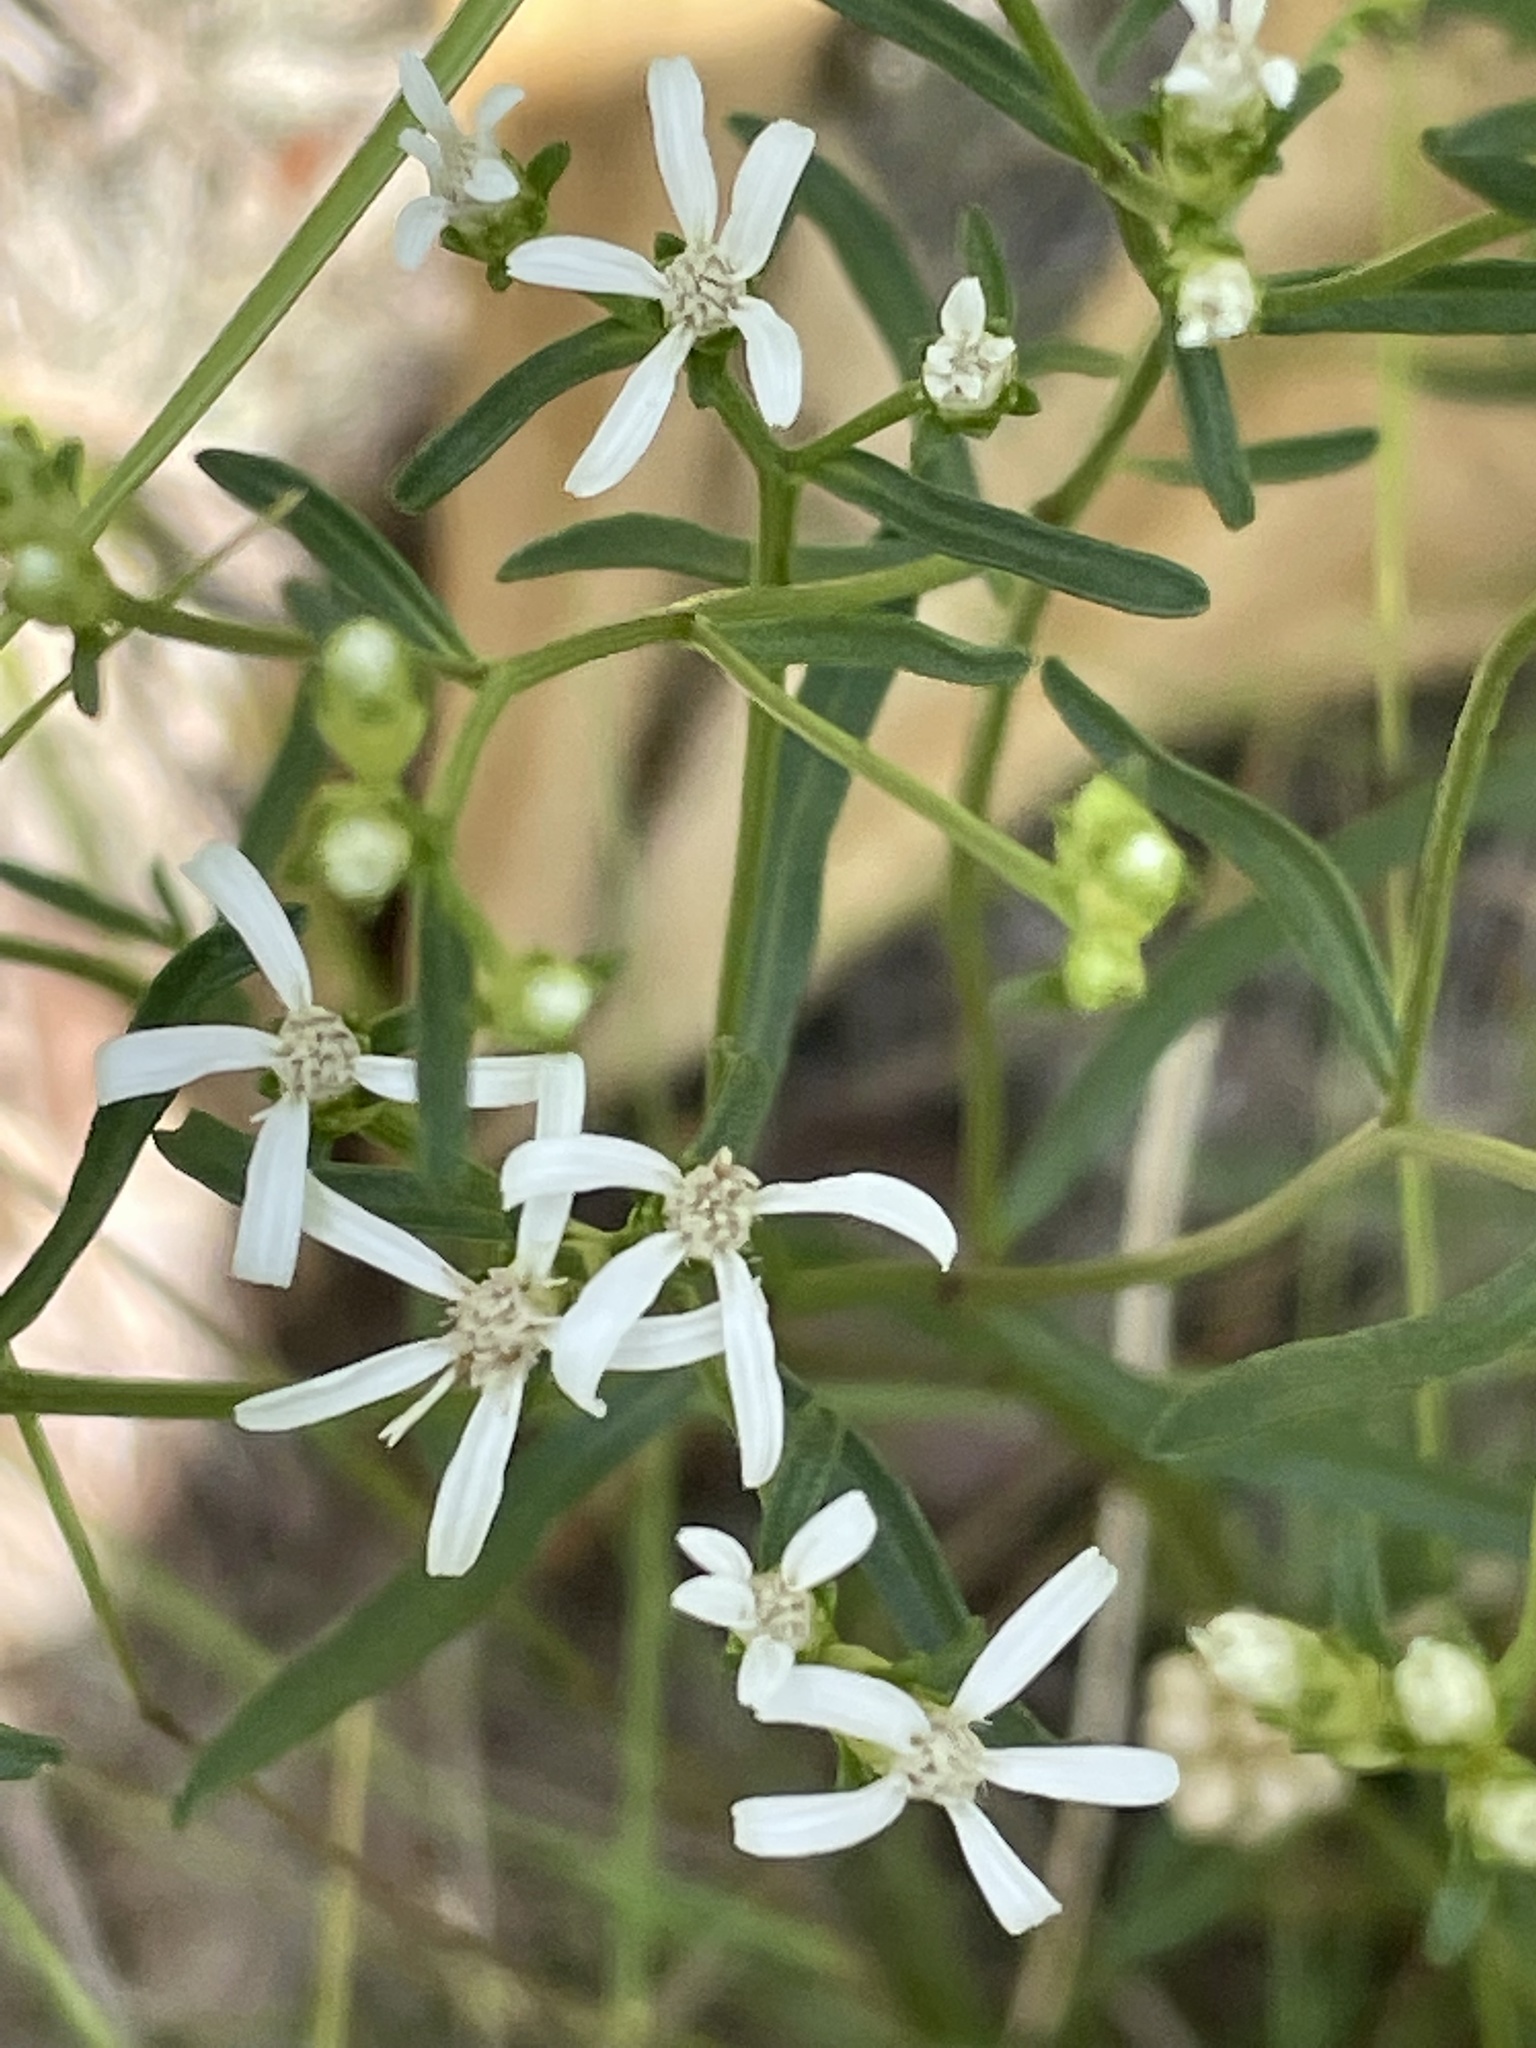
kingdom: Plantae
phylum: Tracheophyta
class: Magnoliopsida
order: Asterales
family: Asteraceae
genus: Sericocarpus
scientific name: Sericocarpus linifolius
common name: Narrow-leaf aster
